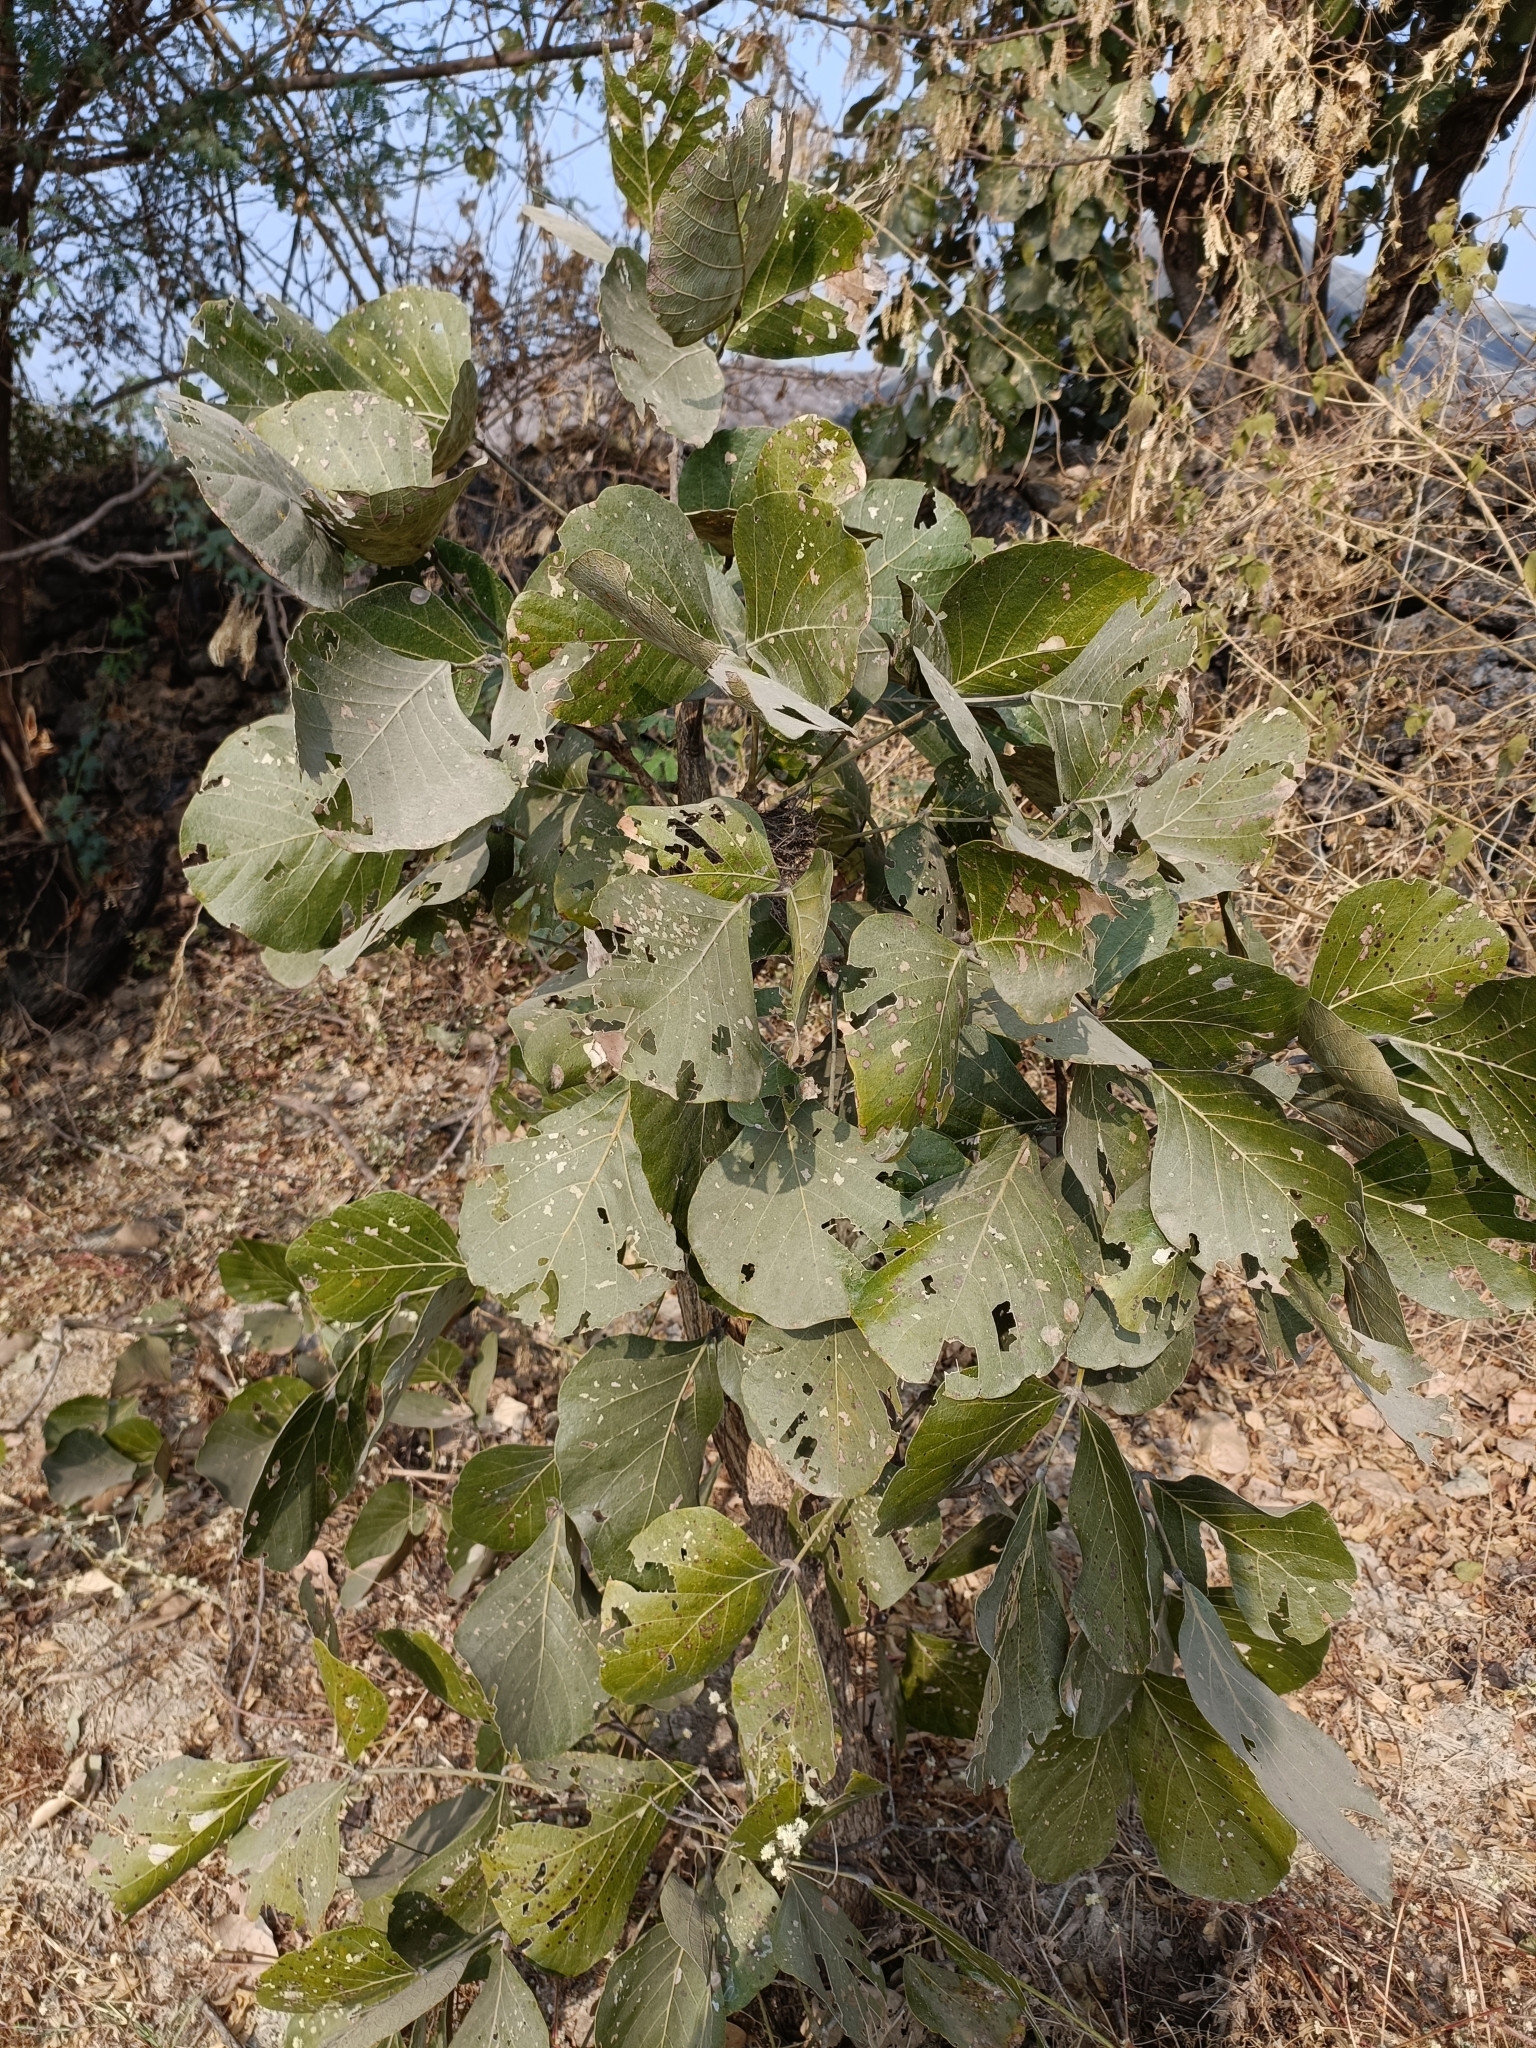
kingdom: Plantae
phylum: Tracheophyta
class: Magnoliopsida
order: Fabales
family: Fabaceae
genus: Butea
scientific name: Butea monosperma
